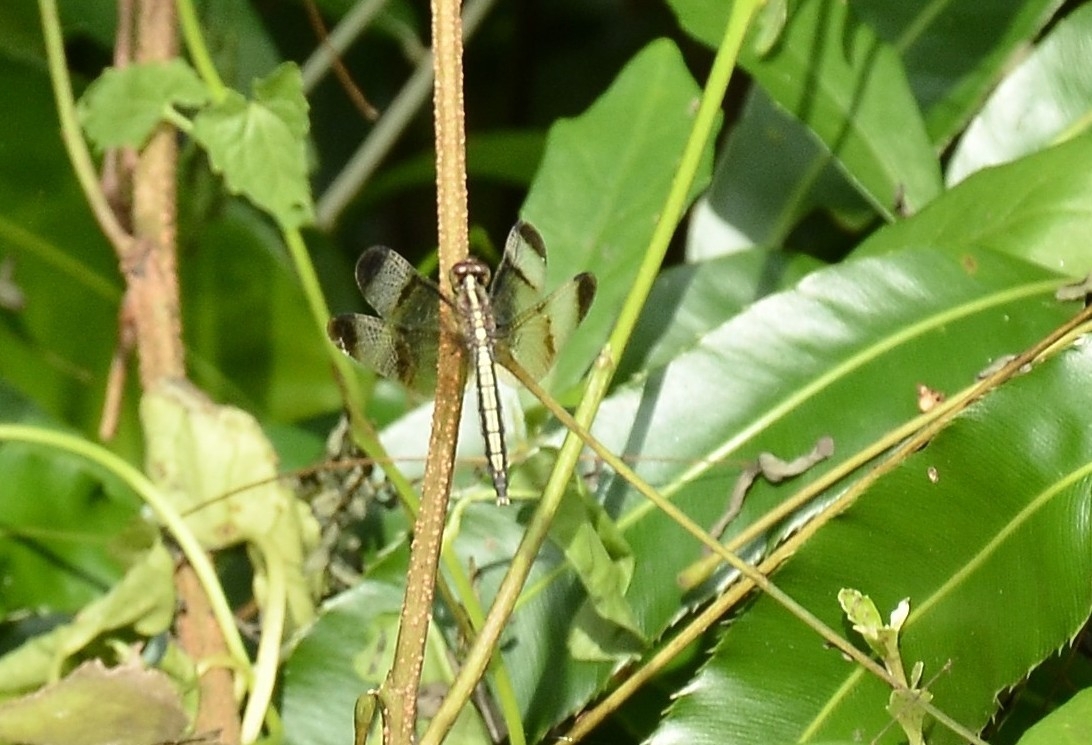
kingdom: Animalia
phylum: Arthropoda
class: Insecta
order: Odonata
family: Libellulidae
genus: Neurothemis
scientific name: Neurothemis tullia
